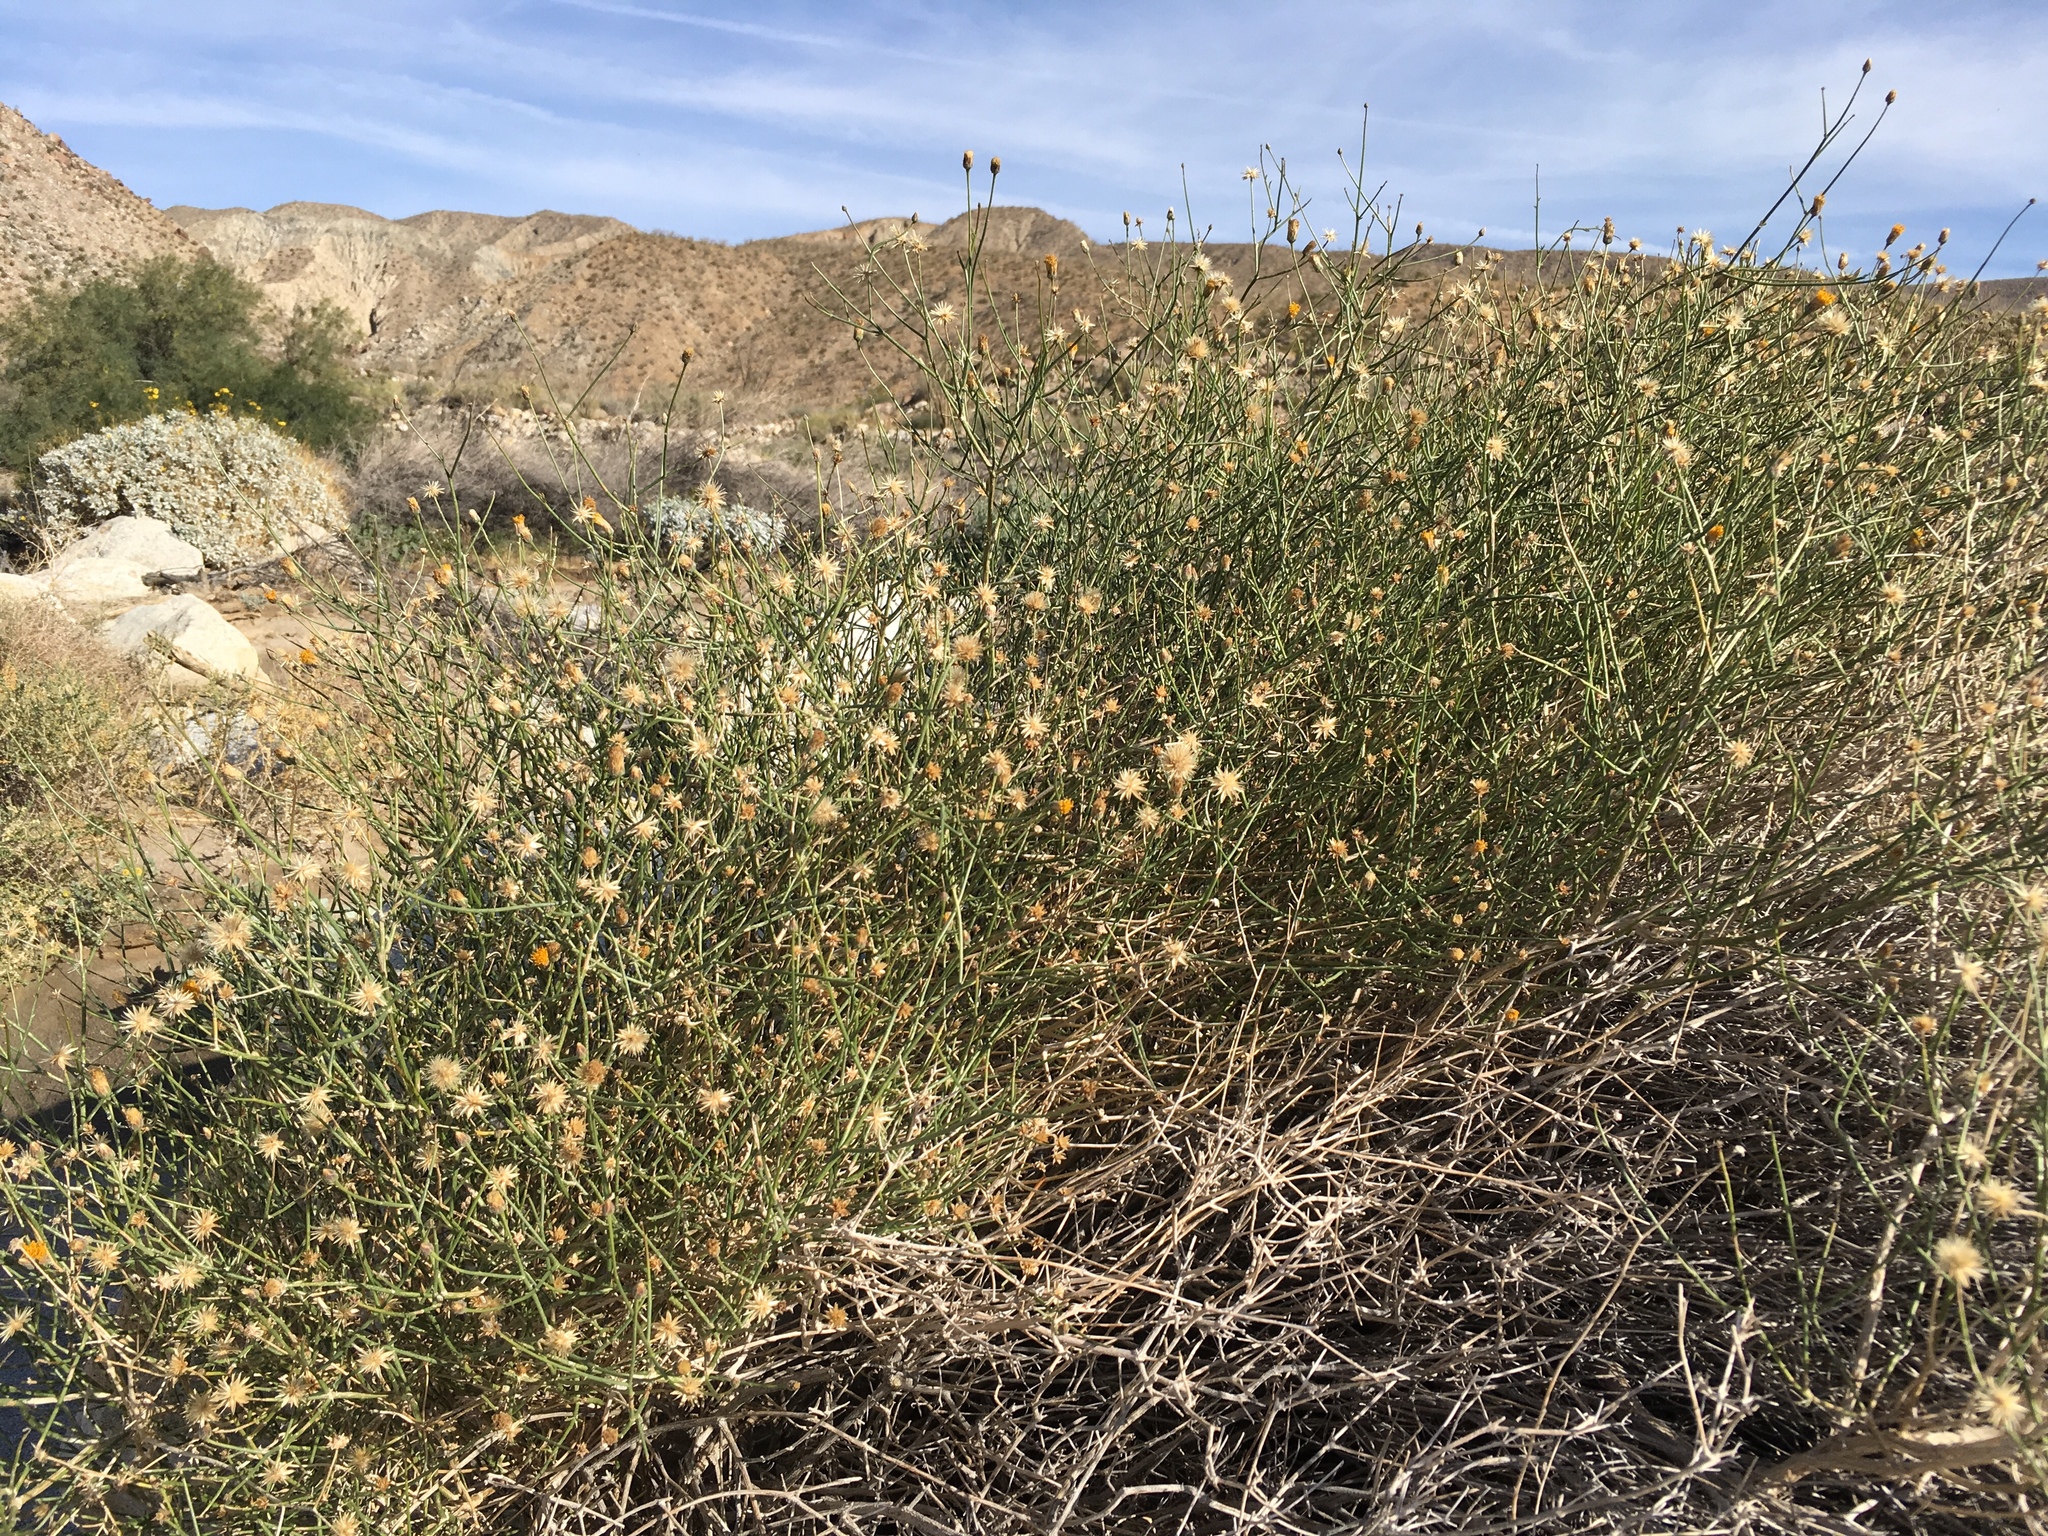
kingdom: Plantae
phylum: Tracheophyta
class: Magnoliopsida
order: Asterales
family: Asteraceae
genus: Bebbia
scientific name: Bebbia juncea
